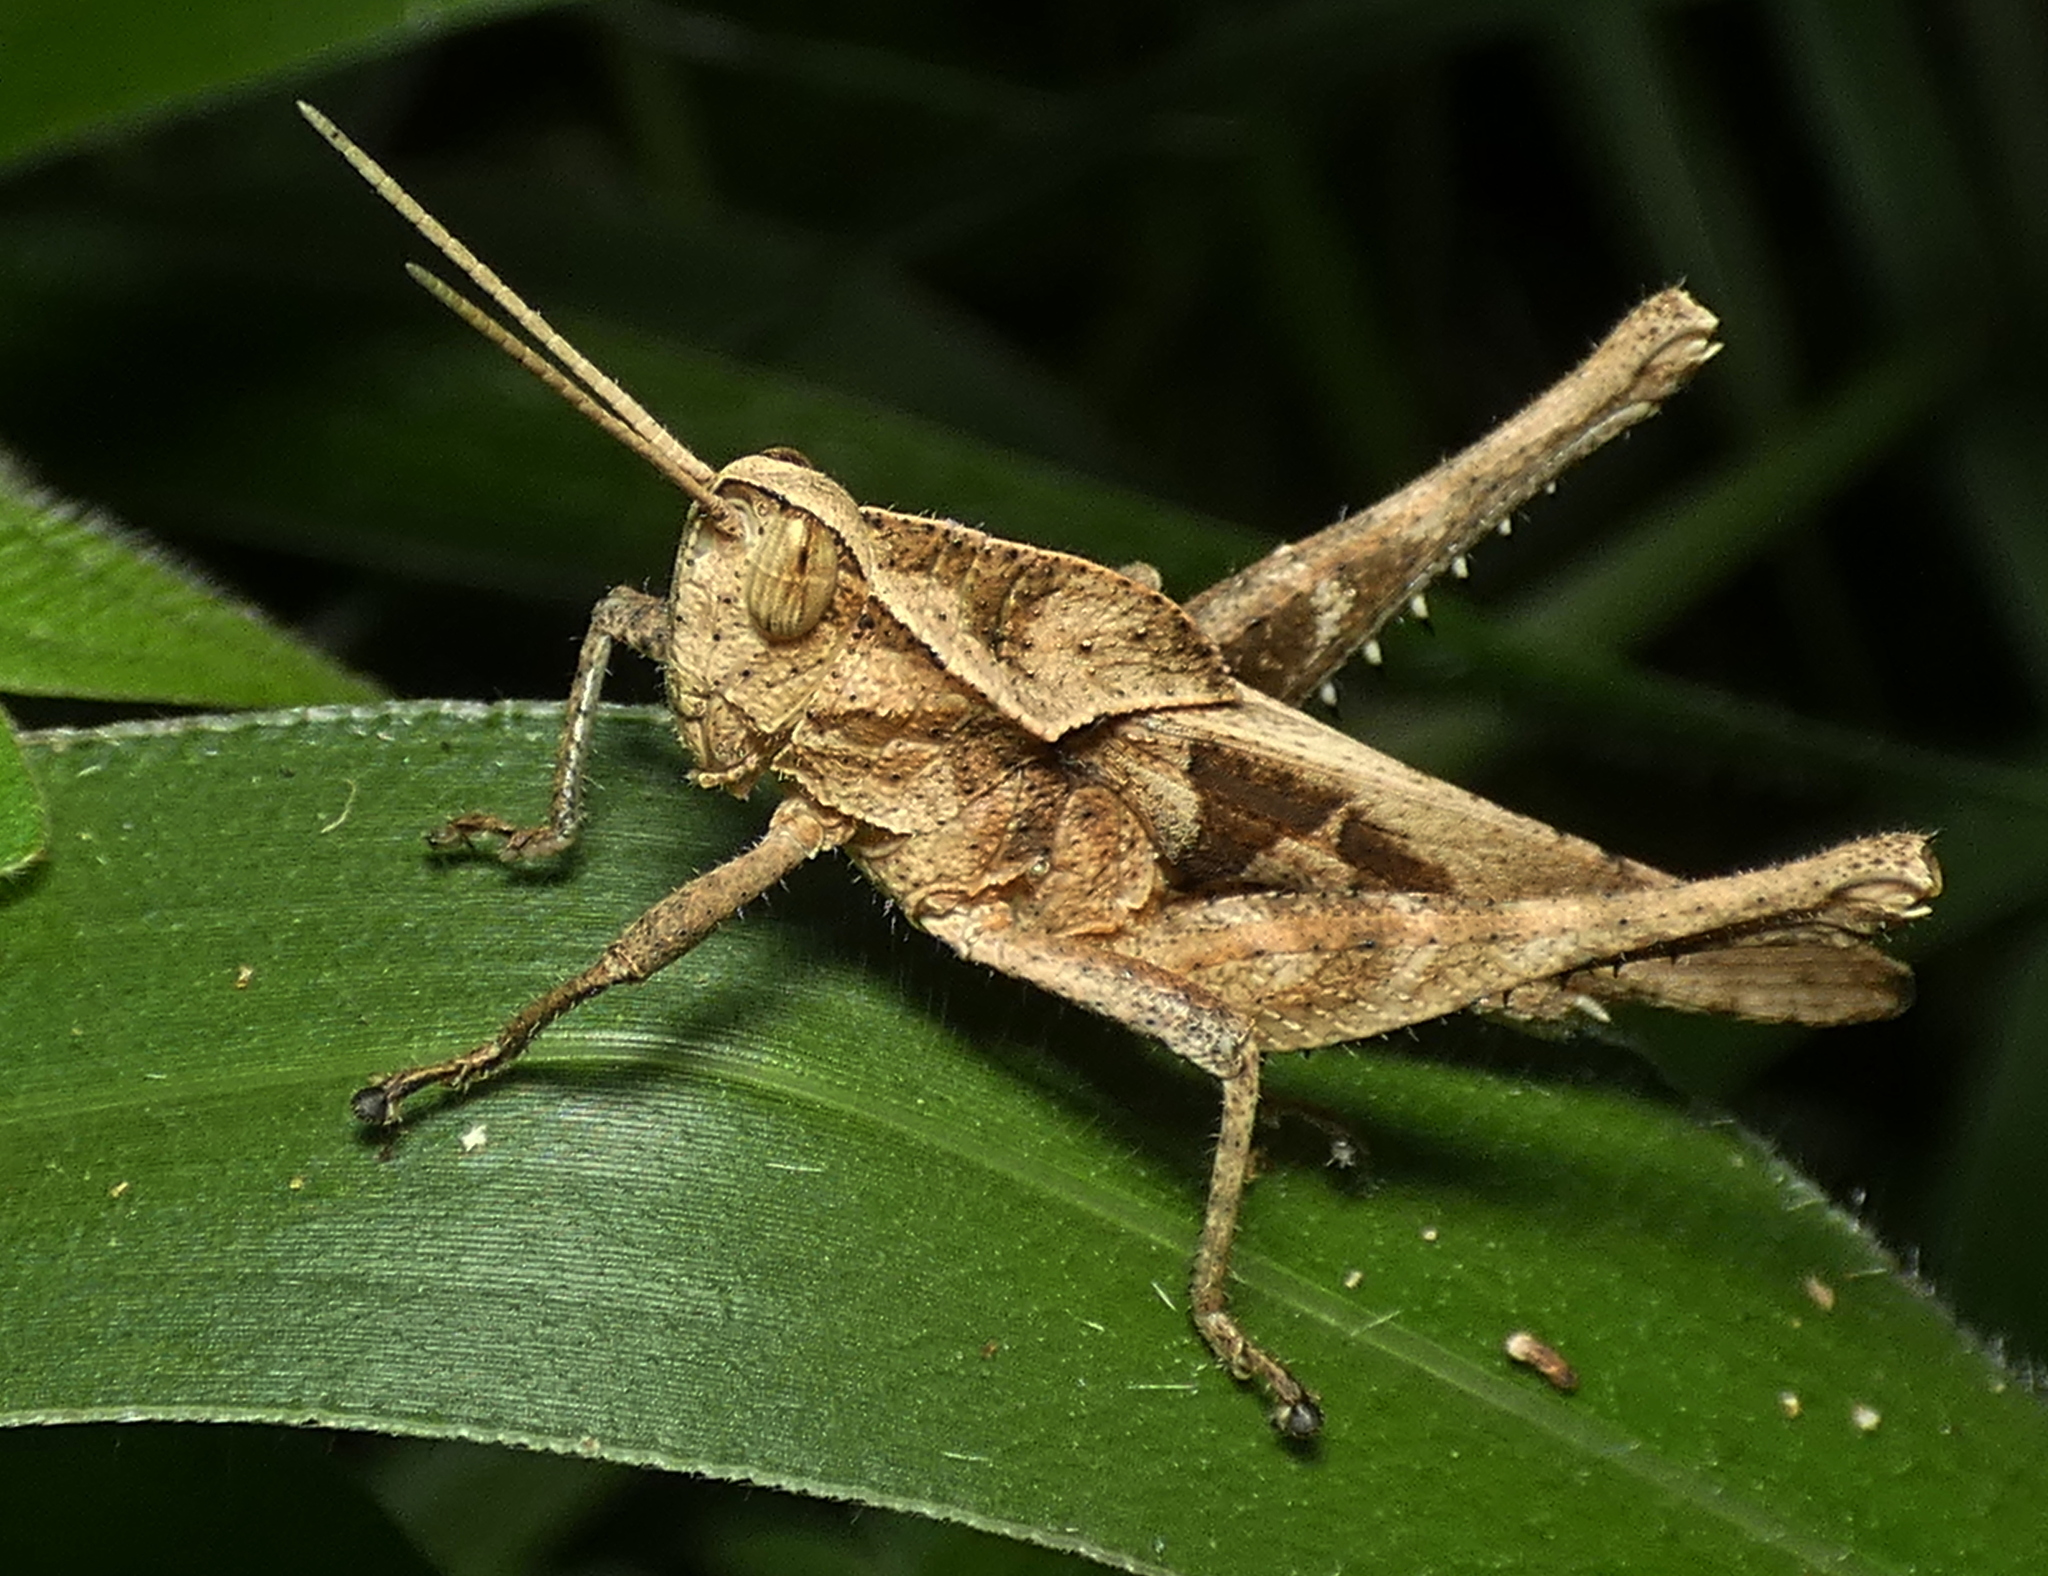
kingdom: Animalia
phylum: Arthropoda
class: Insecta
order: Orthoptera
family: Romaleidae
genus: Xyleus
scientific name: Xyleus discoideus
